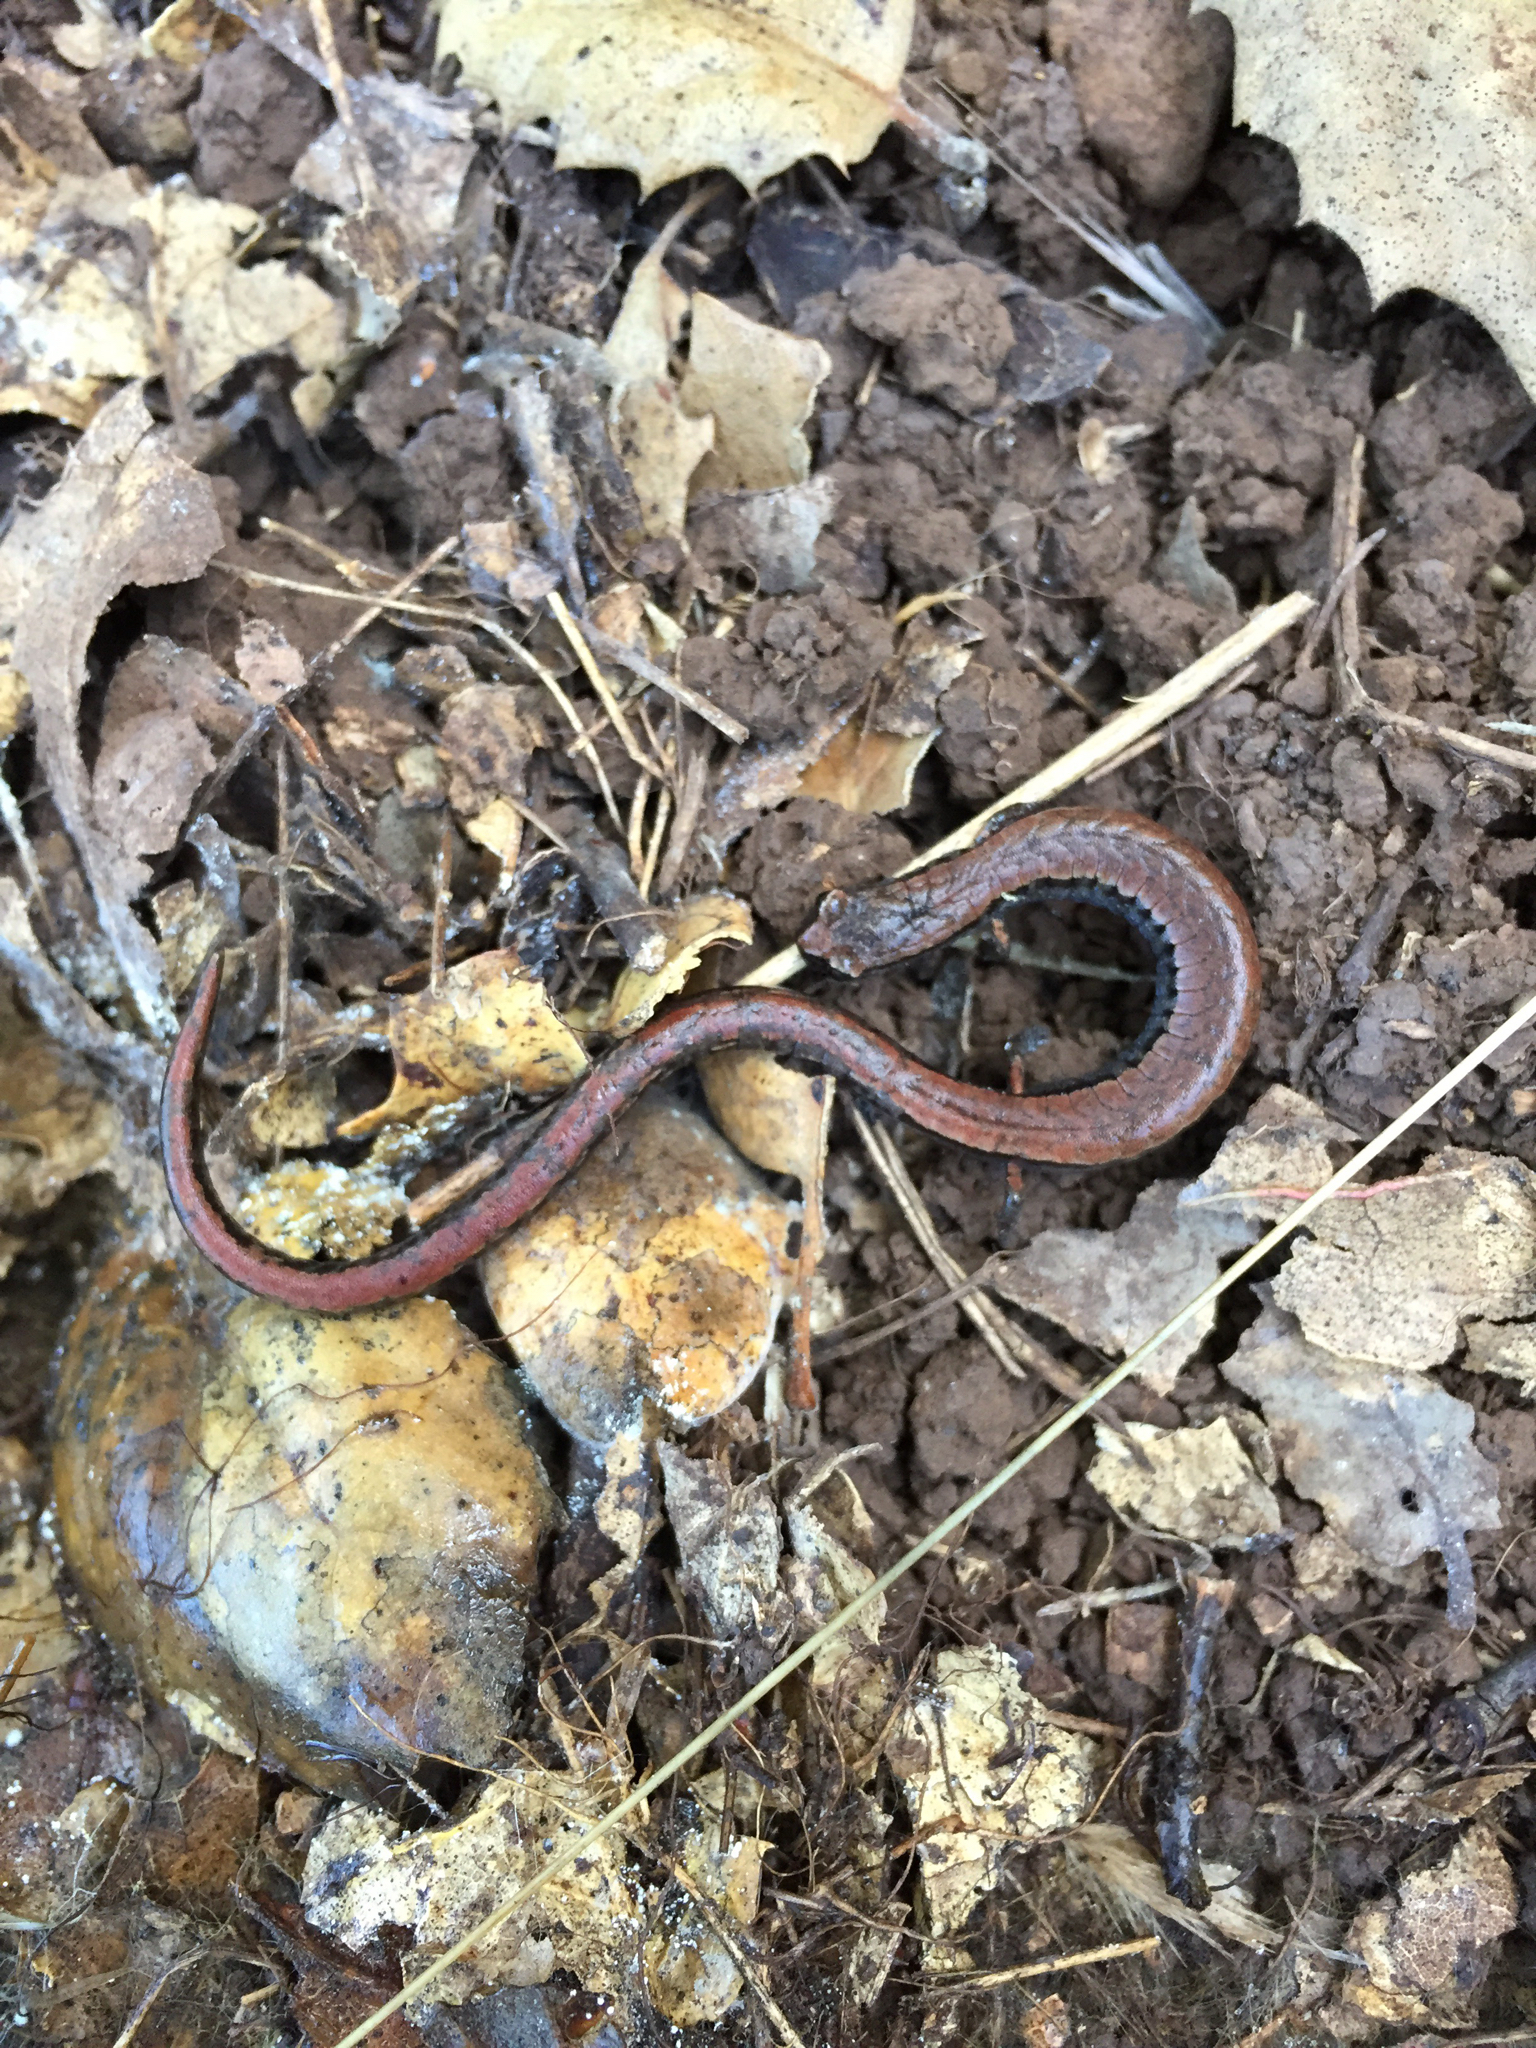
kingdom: Animalia
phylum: Chordata
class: Amphibia
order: Caudata
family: Plethodontidae
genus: Batrachoseps
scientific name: Batrachoseps attenuatus
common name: California slender salamander
